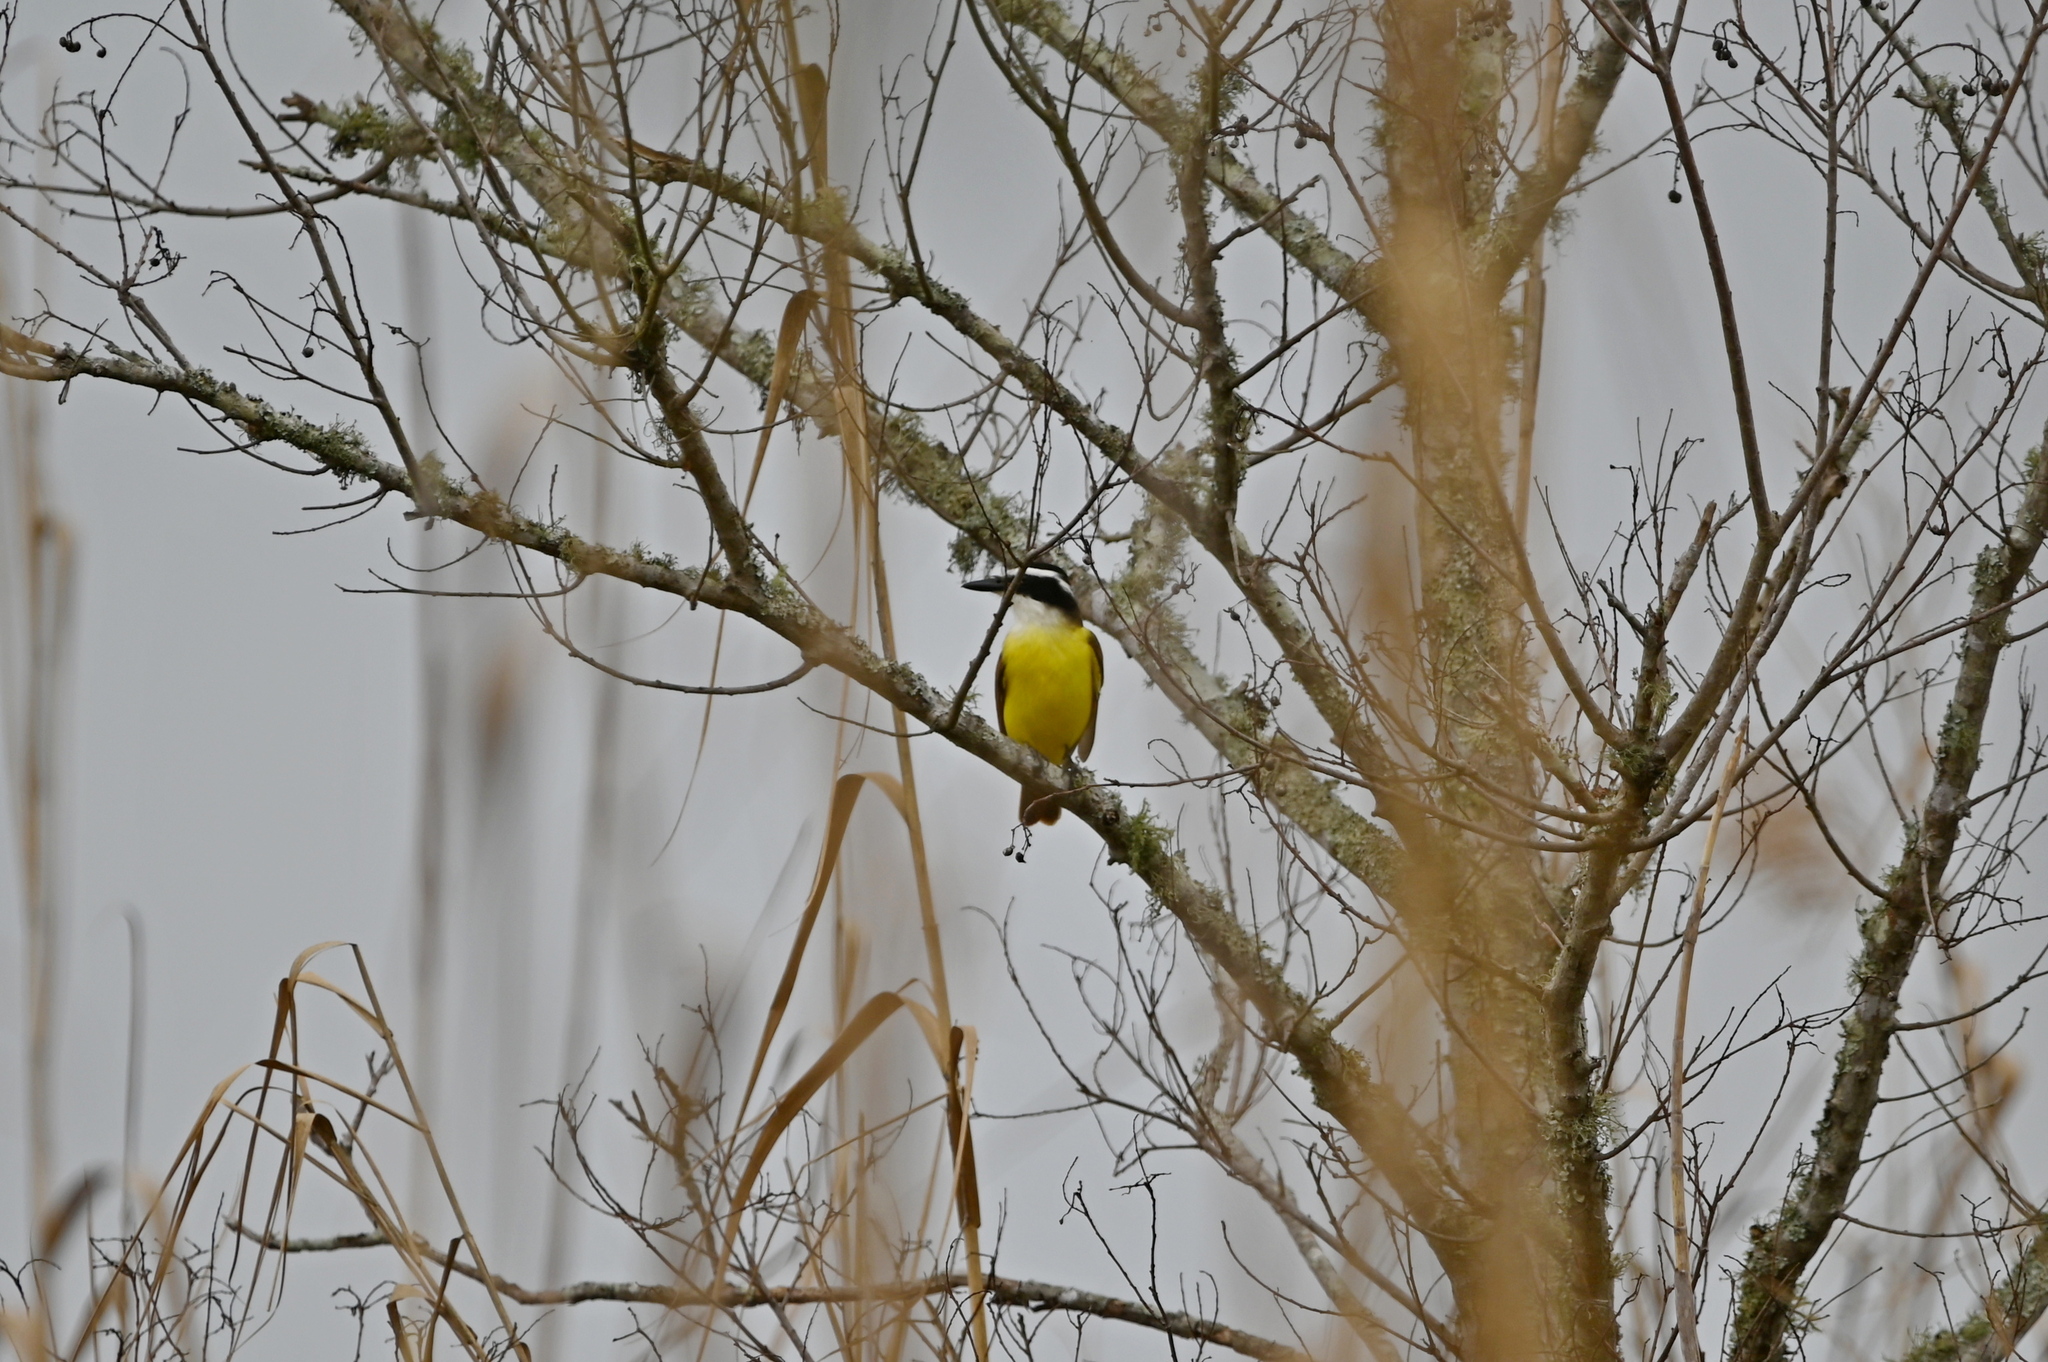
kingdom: Animalia
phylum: Chordata
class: Aves
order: Passeriformes
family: Tyrannidae
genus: Pitangus
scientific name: Pitangus sulphuratus
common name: Great kiskadee
